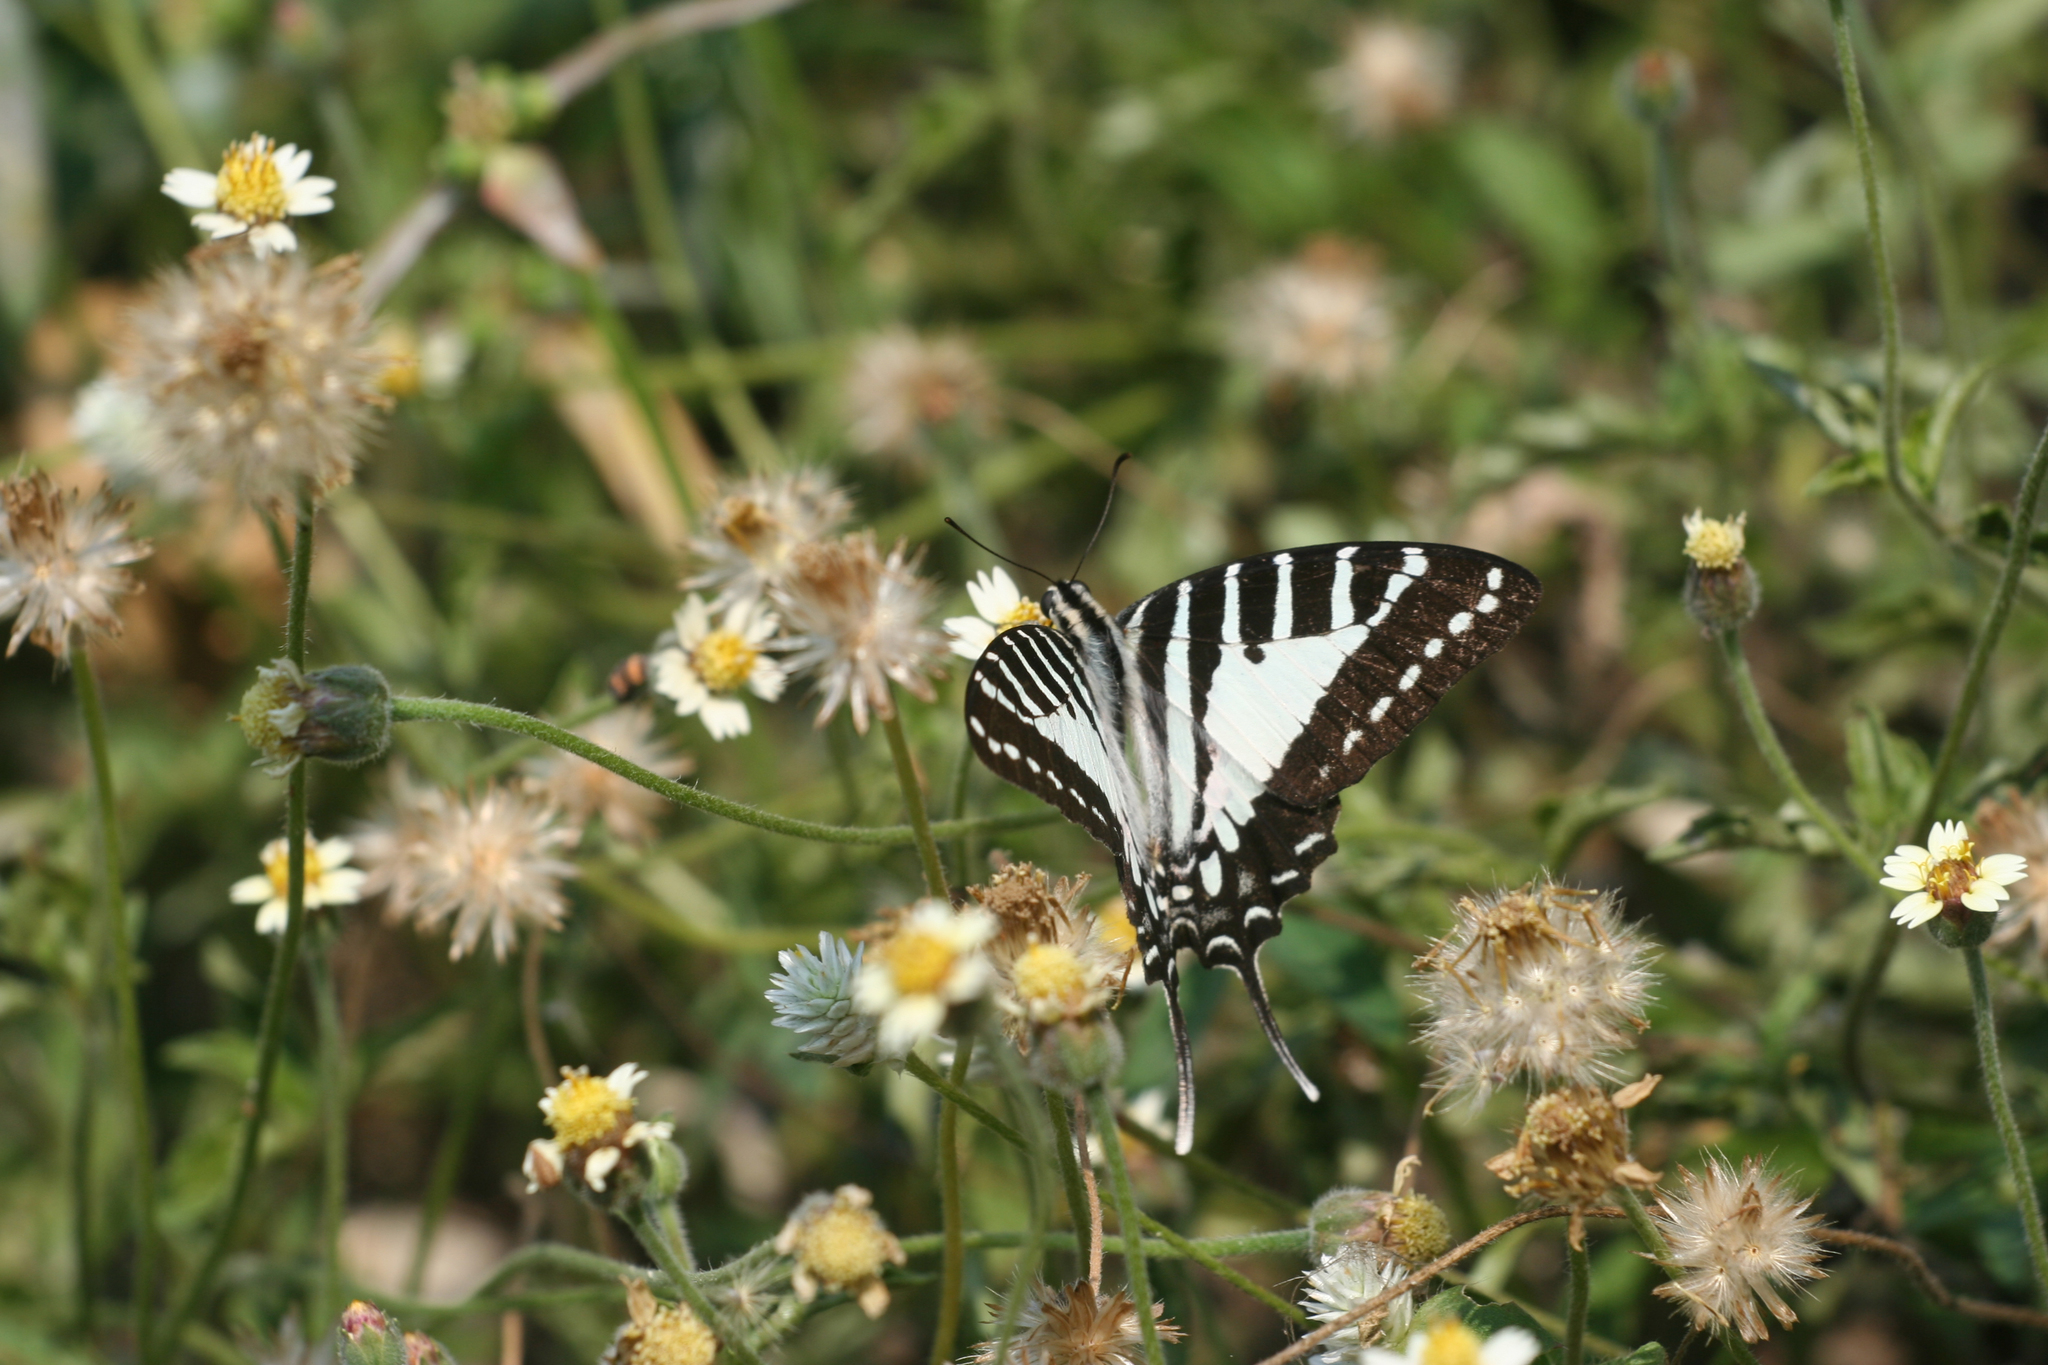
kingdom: Plantae
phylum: Tracheophyta
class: Magnoliopsida
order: Asterales
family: Asteraceae
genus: Tridax
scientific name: Tridax procumbens
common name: Coatbuttons
